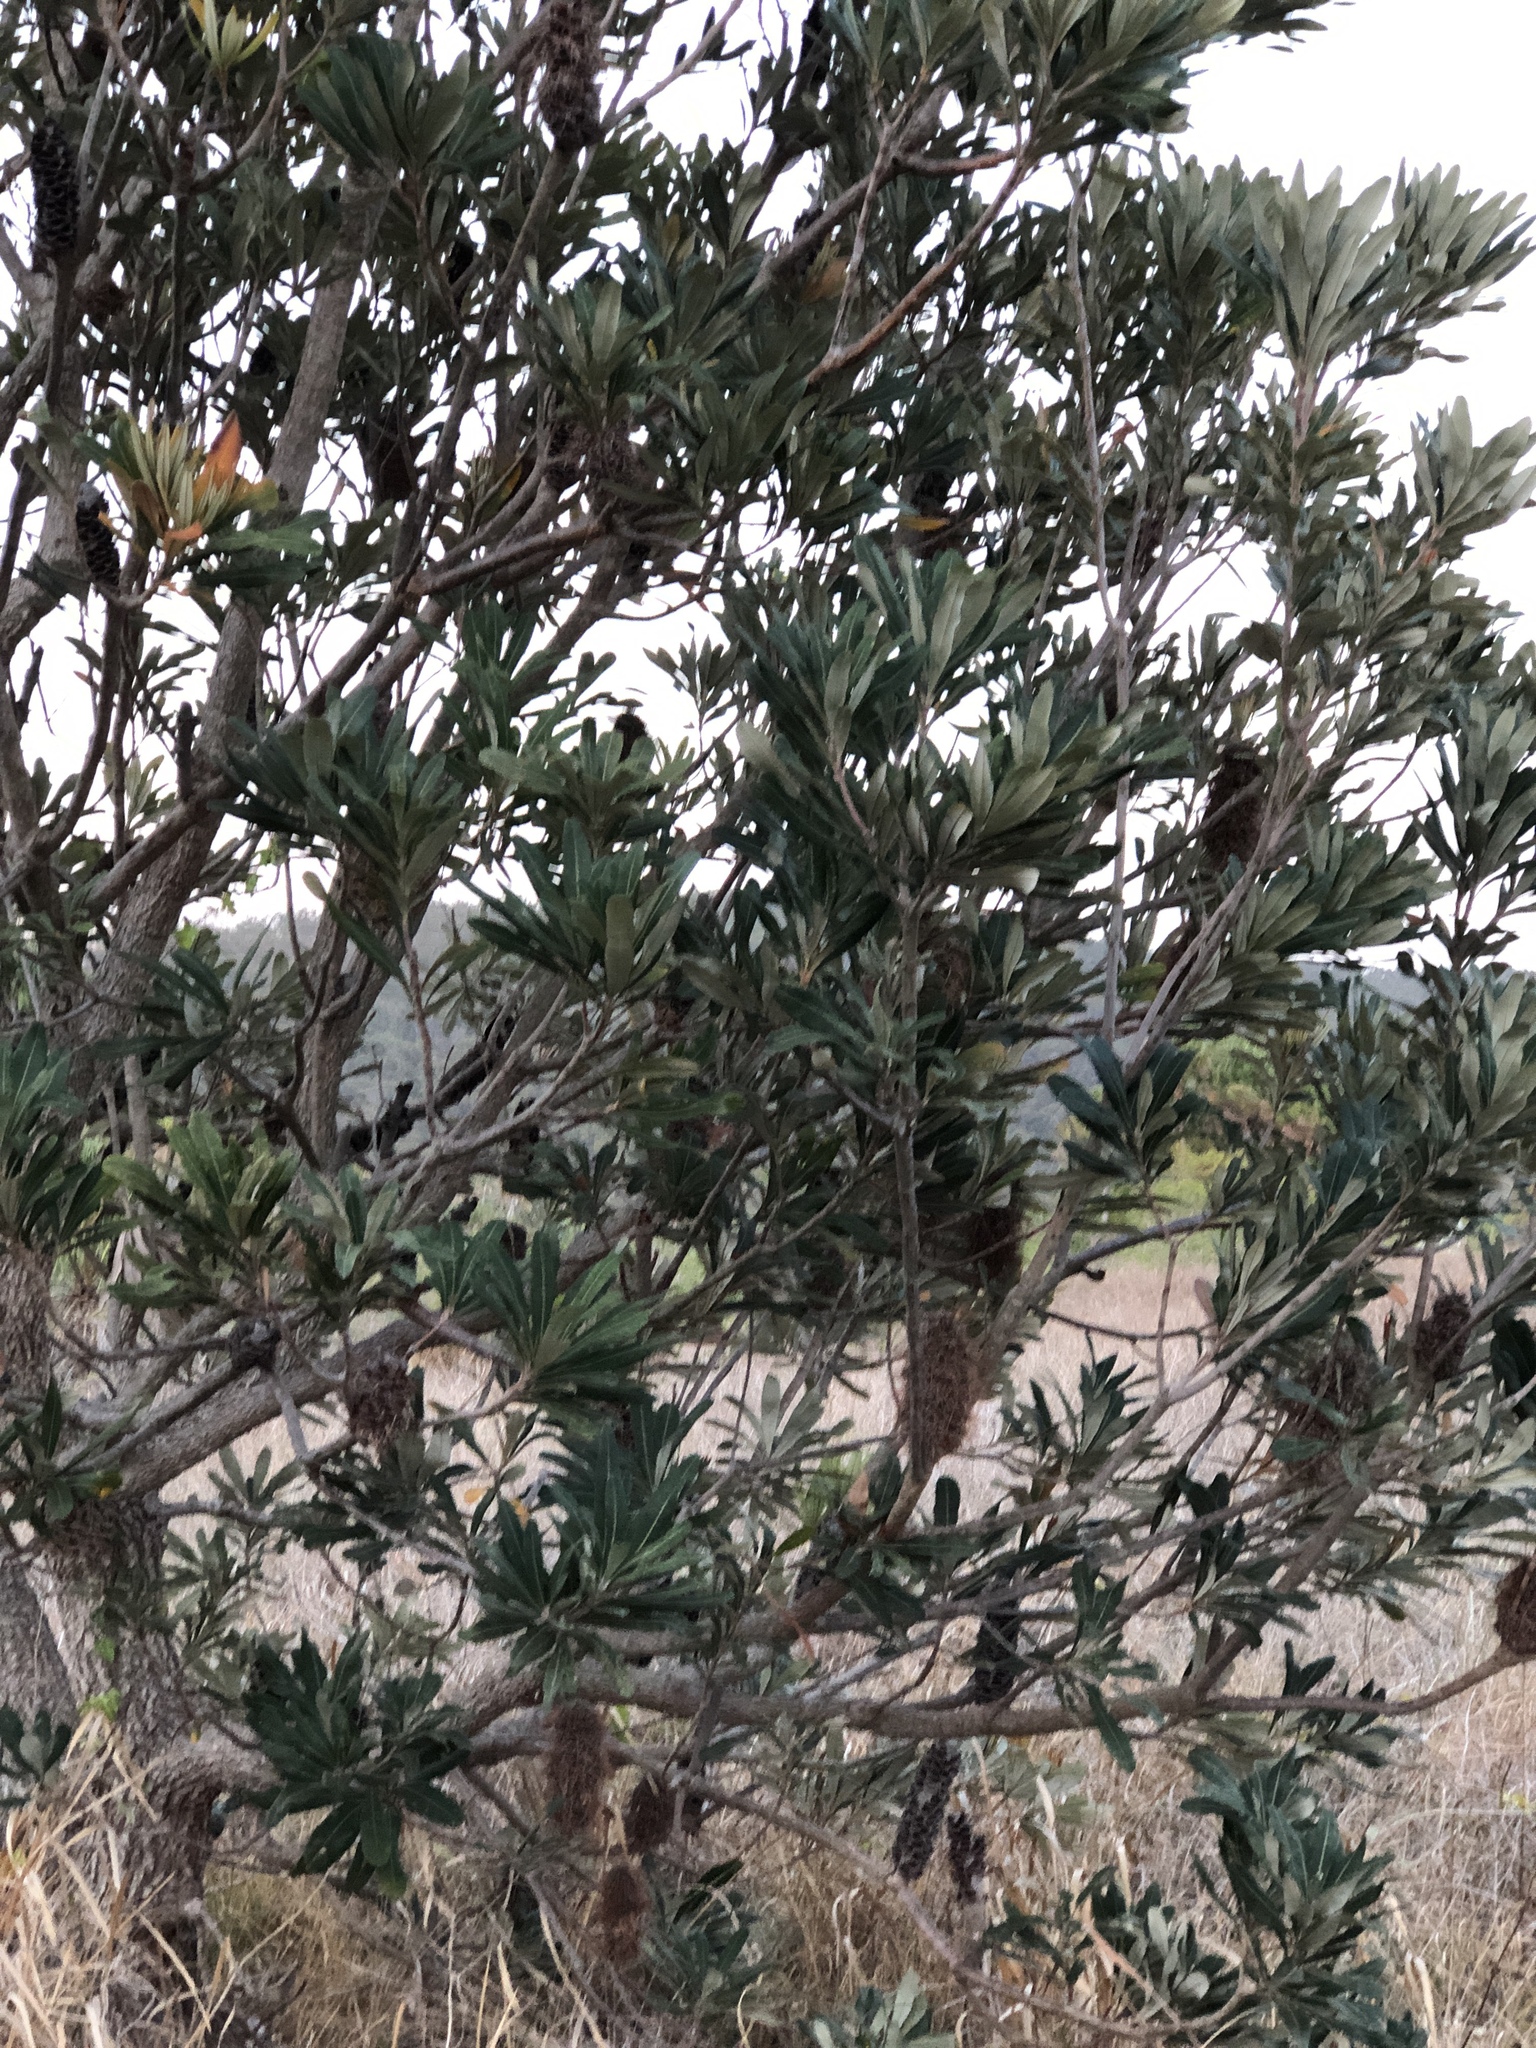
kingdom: Plantae
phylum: Tracheophyta
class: Magnoliopsida
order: Proteales
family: Proteaceae
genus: Banksia
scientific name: Banksia integrifolia
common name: White-honeysuckle
